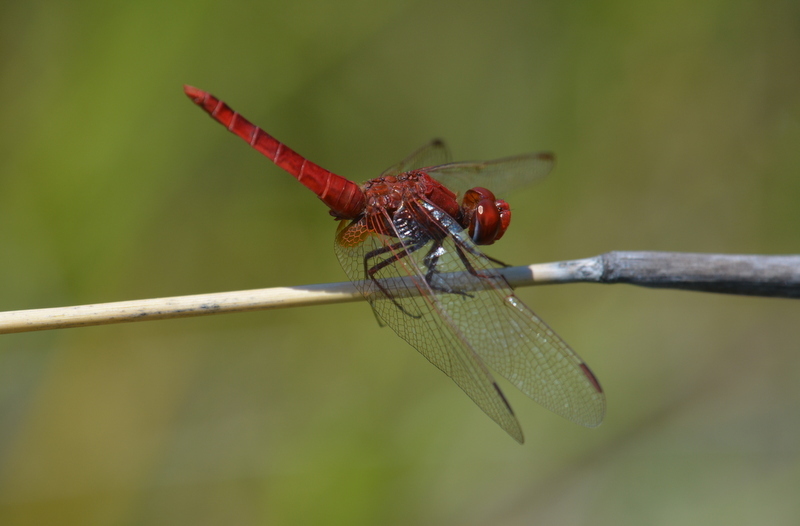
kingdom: Animalia
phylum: Arthropoda
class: Insecta
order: Odonata
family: Libellulidae
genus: Crocothemis
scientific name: Crocothemis erythraea
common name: Scarlet dragonfly
